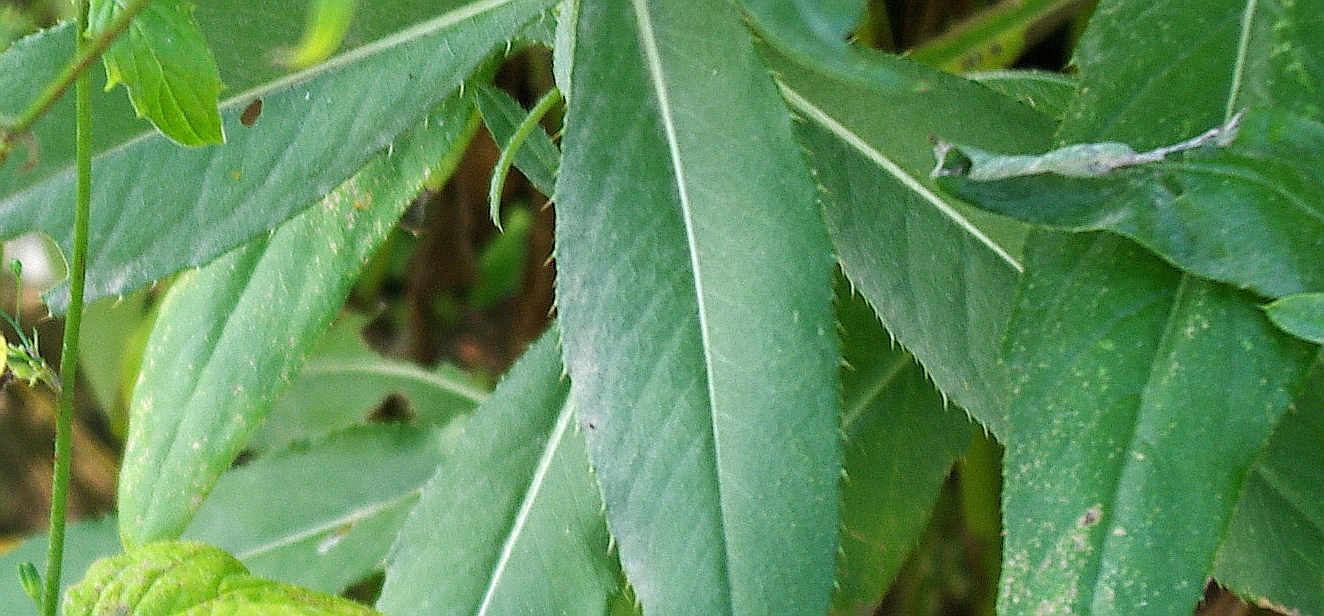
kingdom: Plantae
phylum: Tracheophyta
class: Magnoliopsida
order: Asterales
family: Asteraceae
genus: Cirsium
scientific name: Cirsium arvense
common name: Creeping thistle
